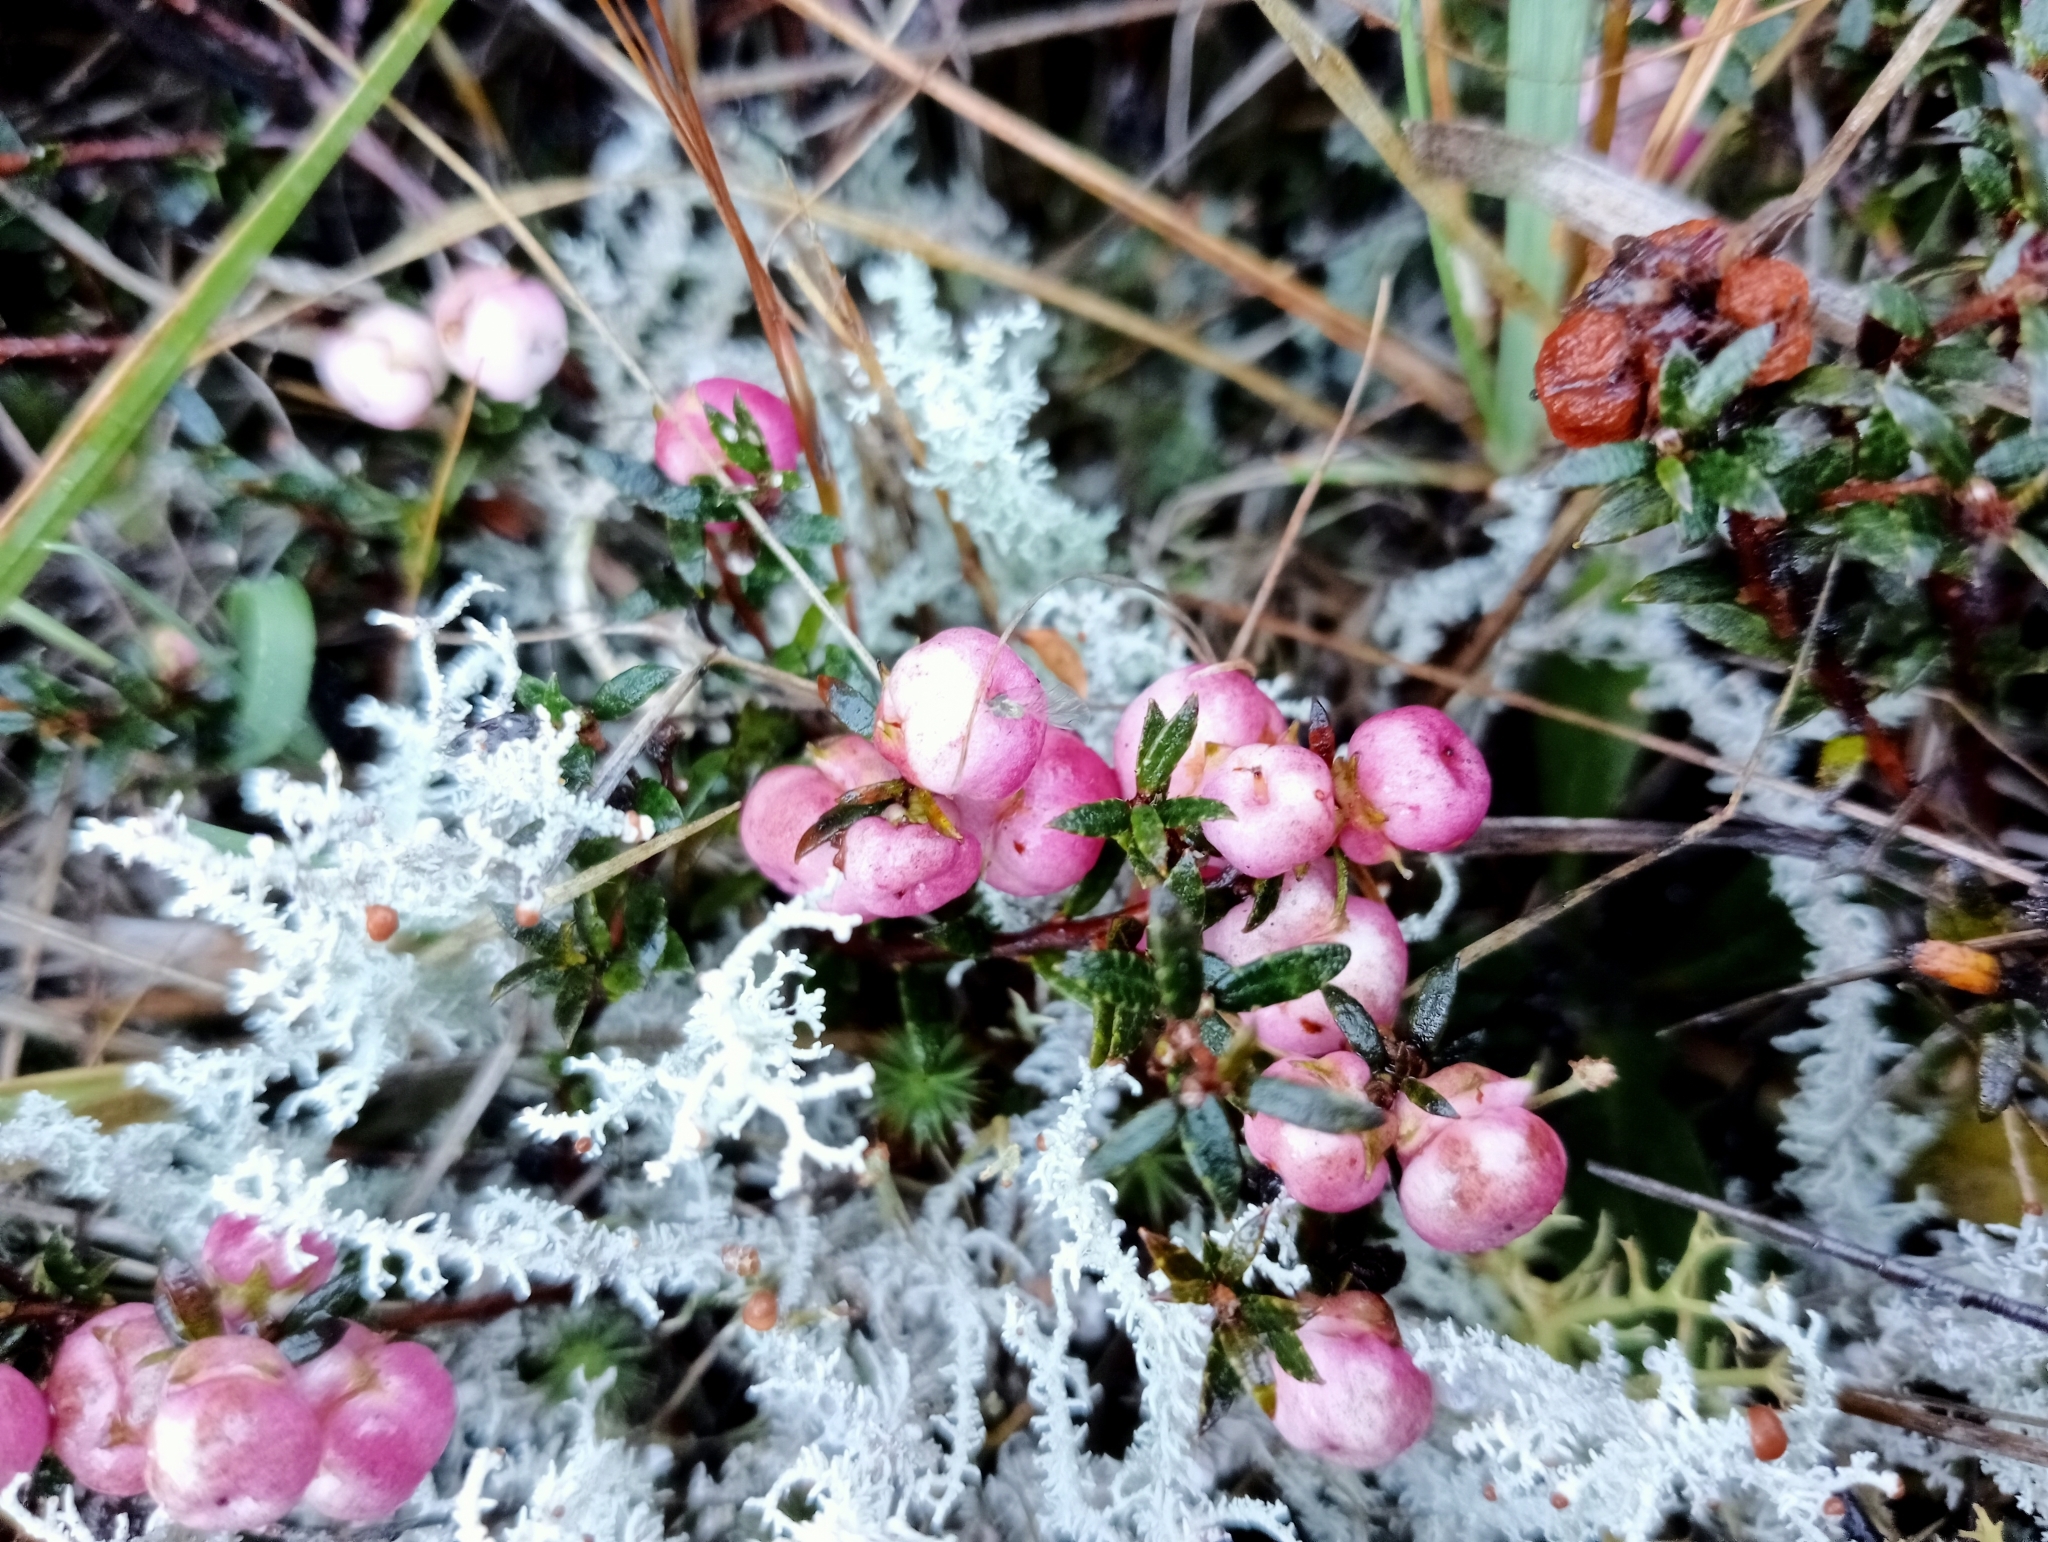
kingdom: Plantae
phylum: Tracheophyta
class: Magnoliopsida
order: Ericales
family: Ericaceae
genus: Gaultheria
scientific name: Gaultheria macrostigma
